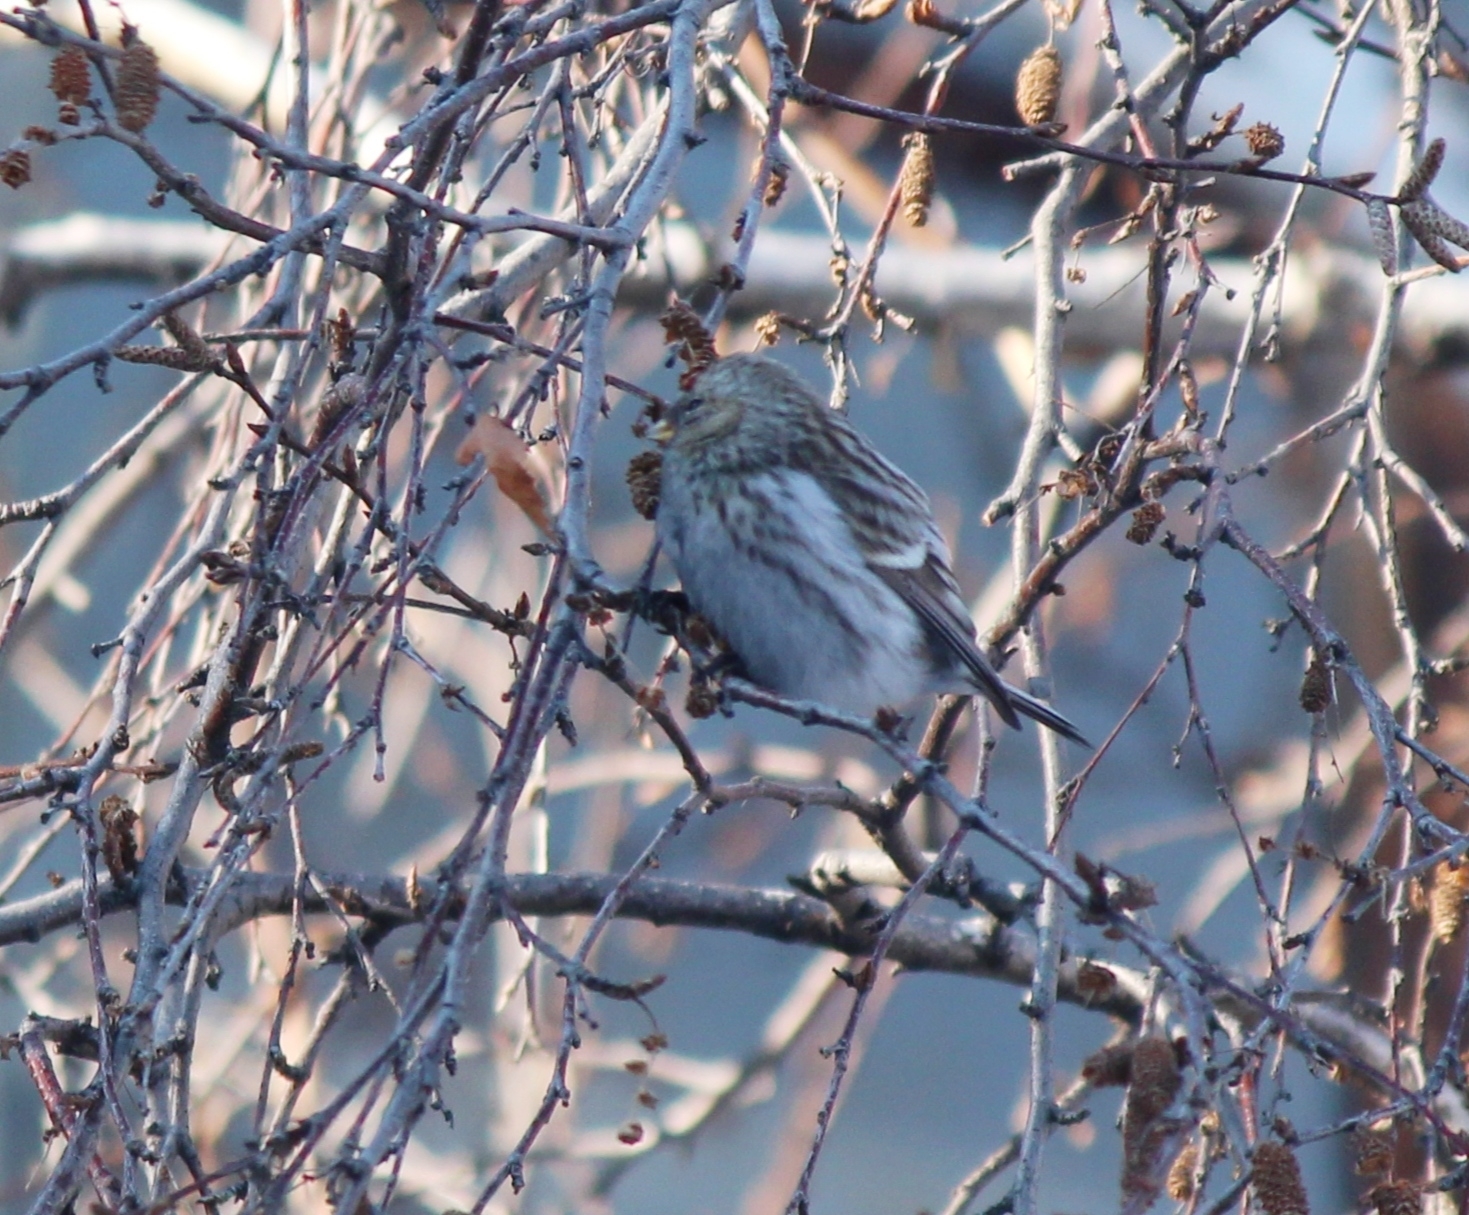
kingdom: Animalia
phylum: Chordata
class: Aves
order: Passeriformes
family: Fringillidae
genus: Acanthis
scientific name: Acanthis flammea
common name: Common redpoll
